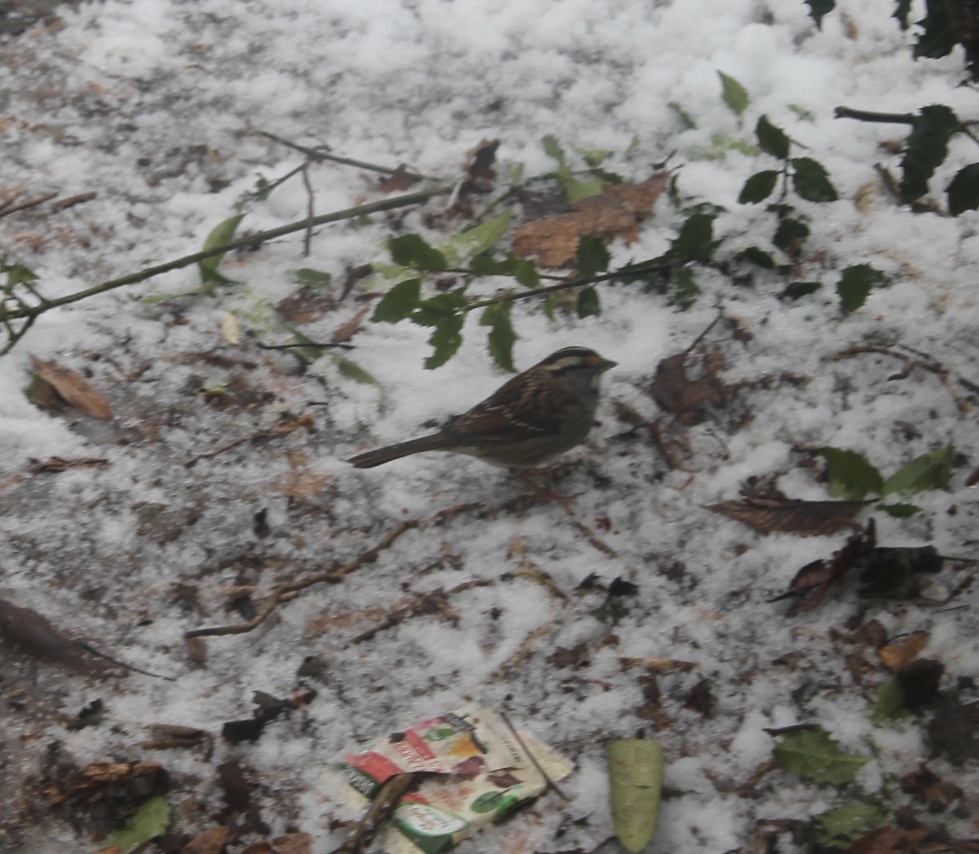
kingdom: Animalia
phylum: Chordata
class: Aves
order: Passeriformes
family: Passerellidae
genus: Zonotrichia
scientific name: Zonotrichia albicollis
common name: White-throated sparrow
